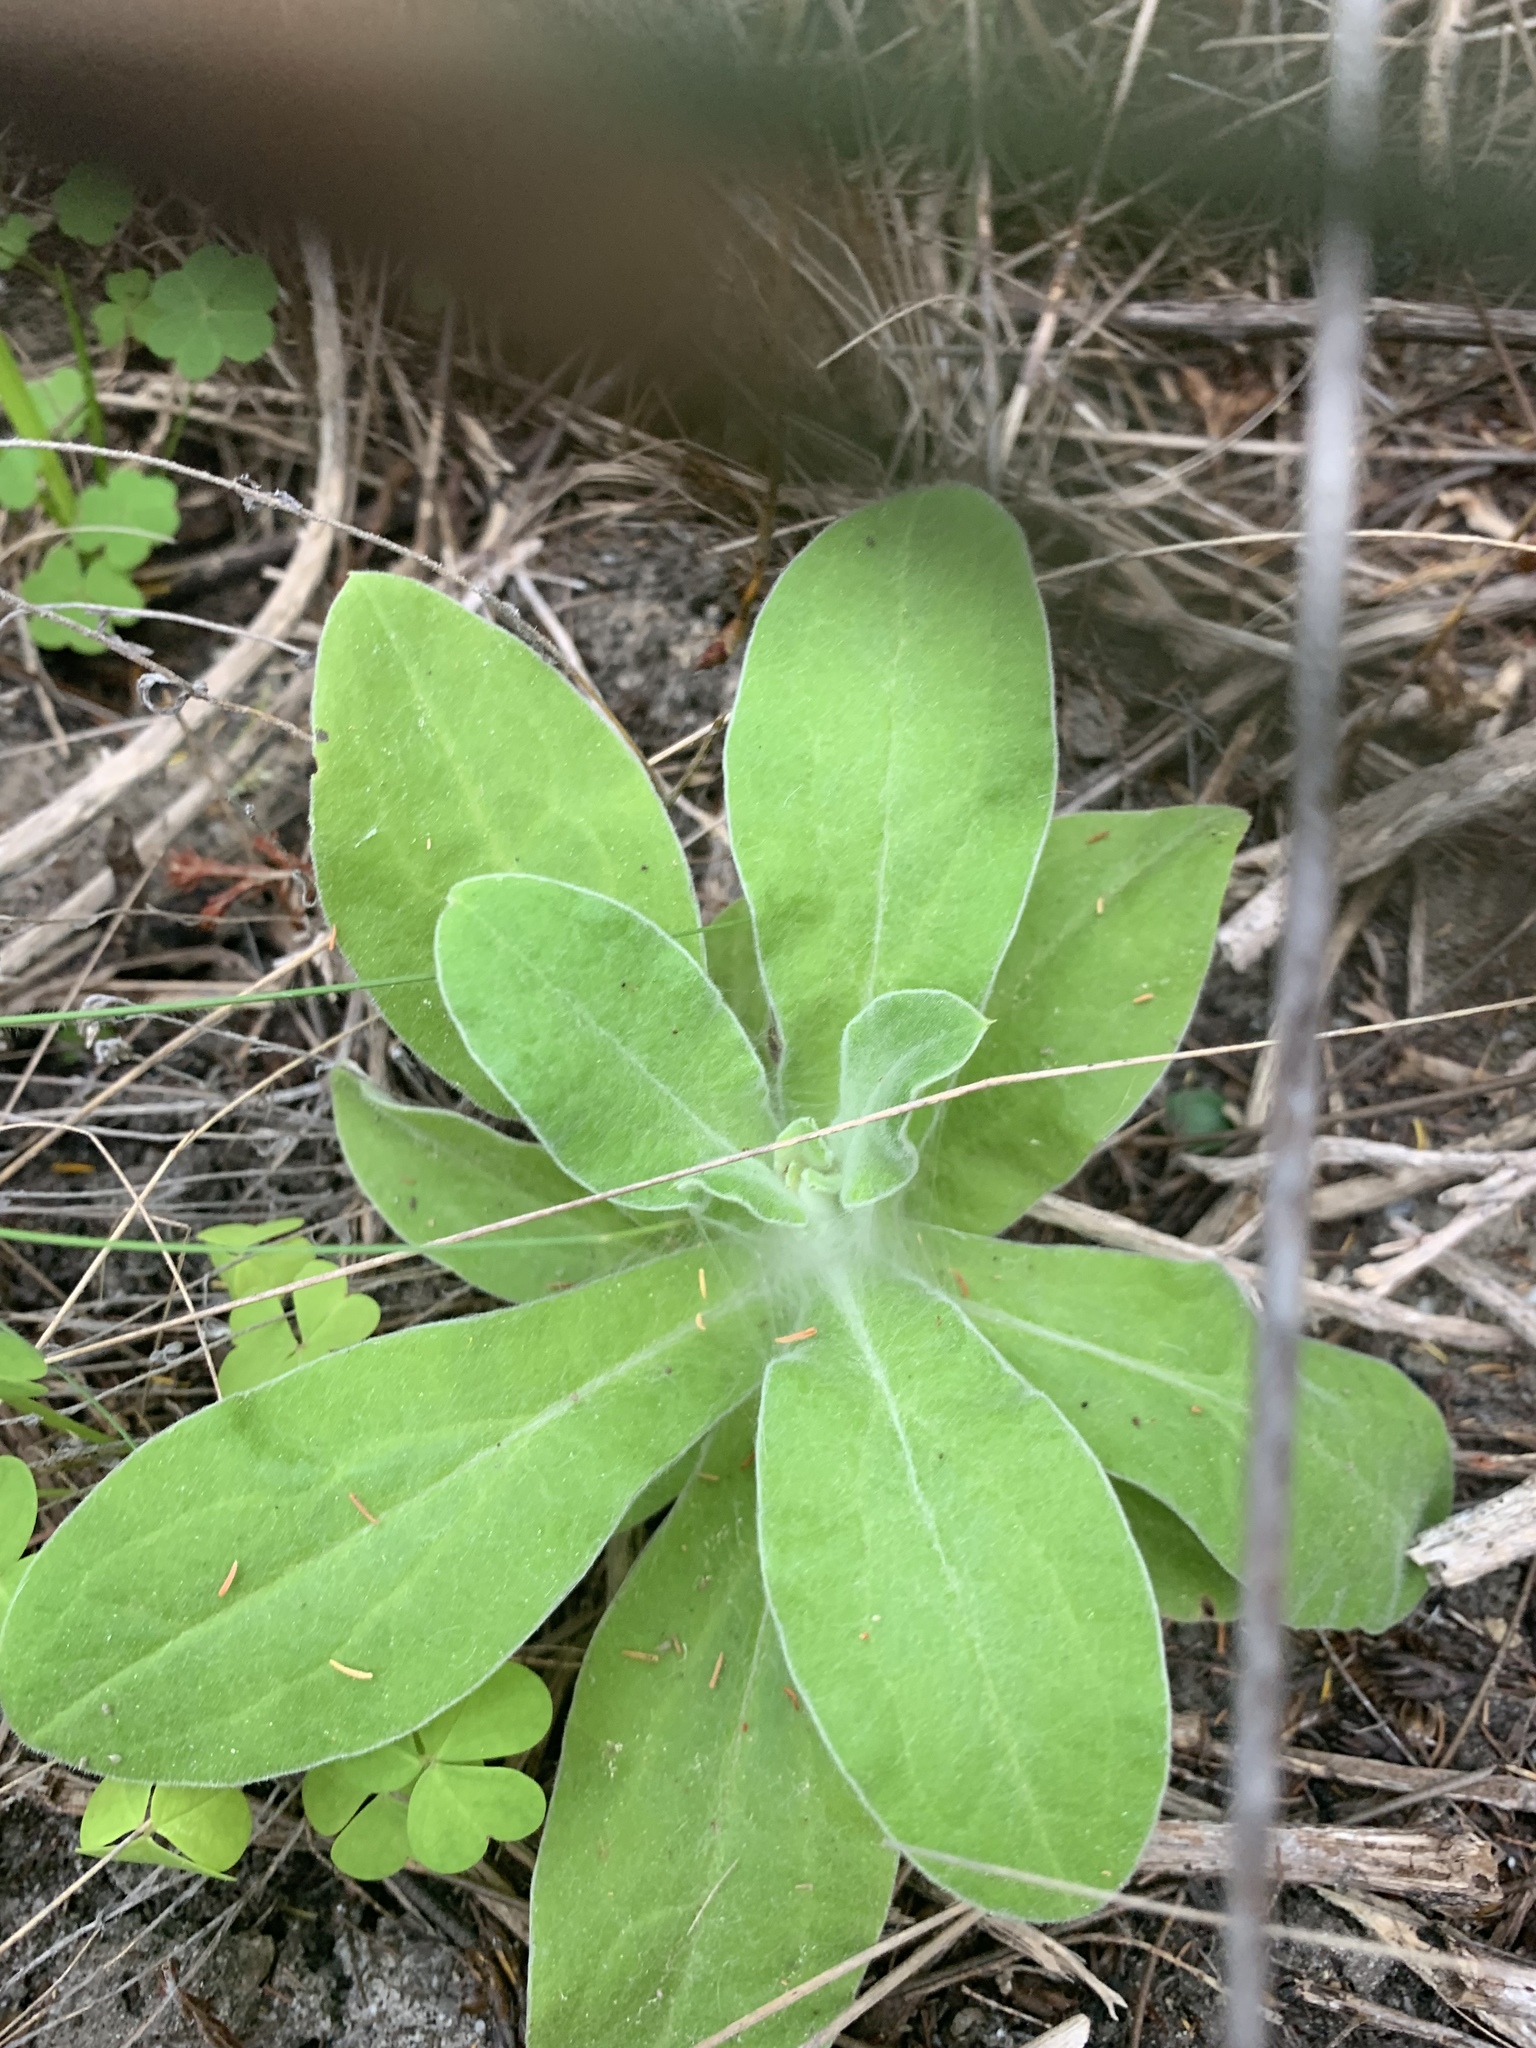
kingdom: Plantae
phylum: Tracheophyta
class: Magnoliopsida
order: Asterales
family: Asteraceae
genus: Helichrysum
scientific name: Helichrysum foetidum
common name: Stinking everlasting
